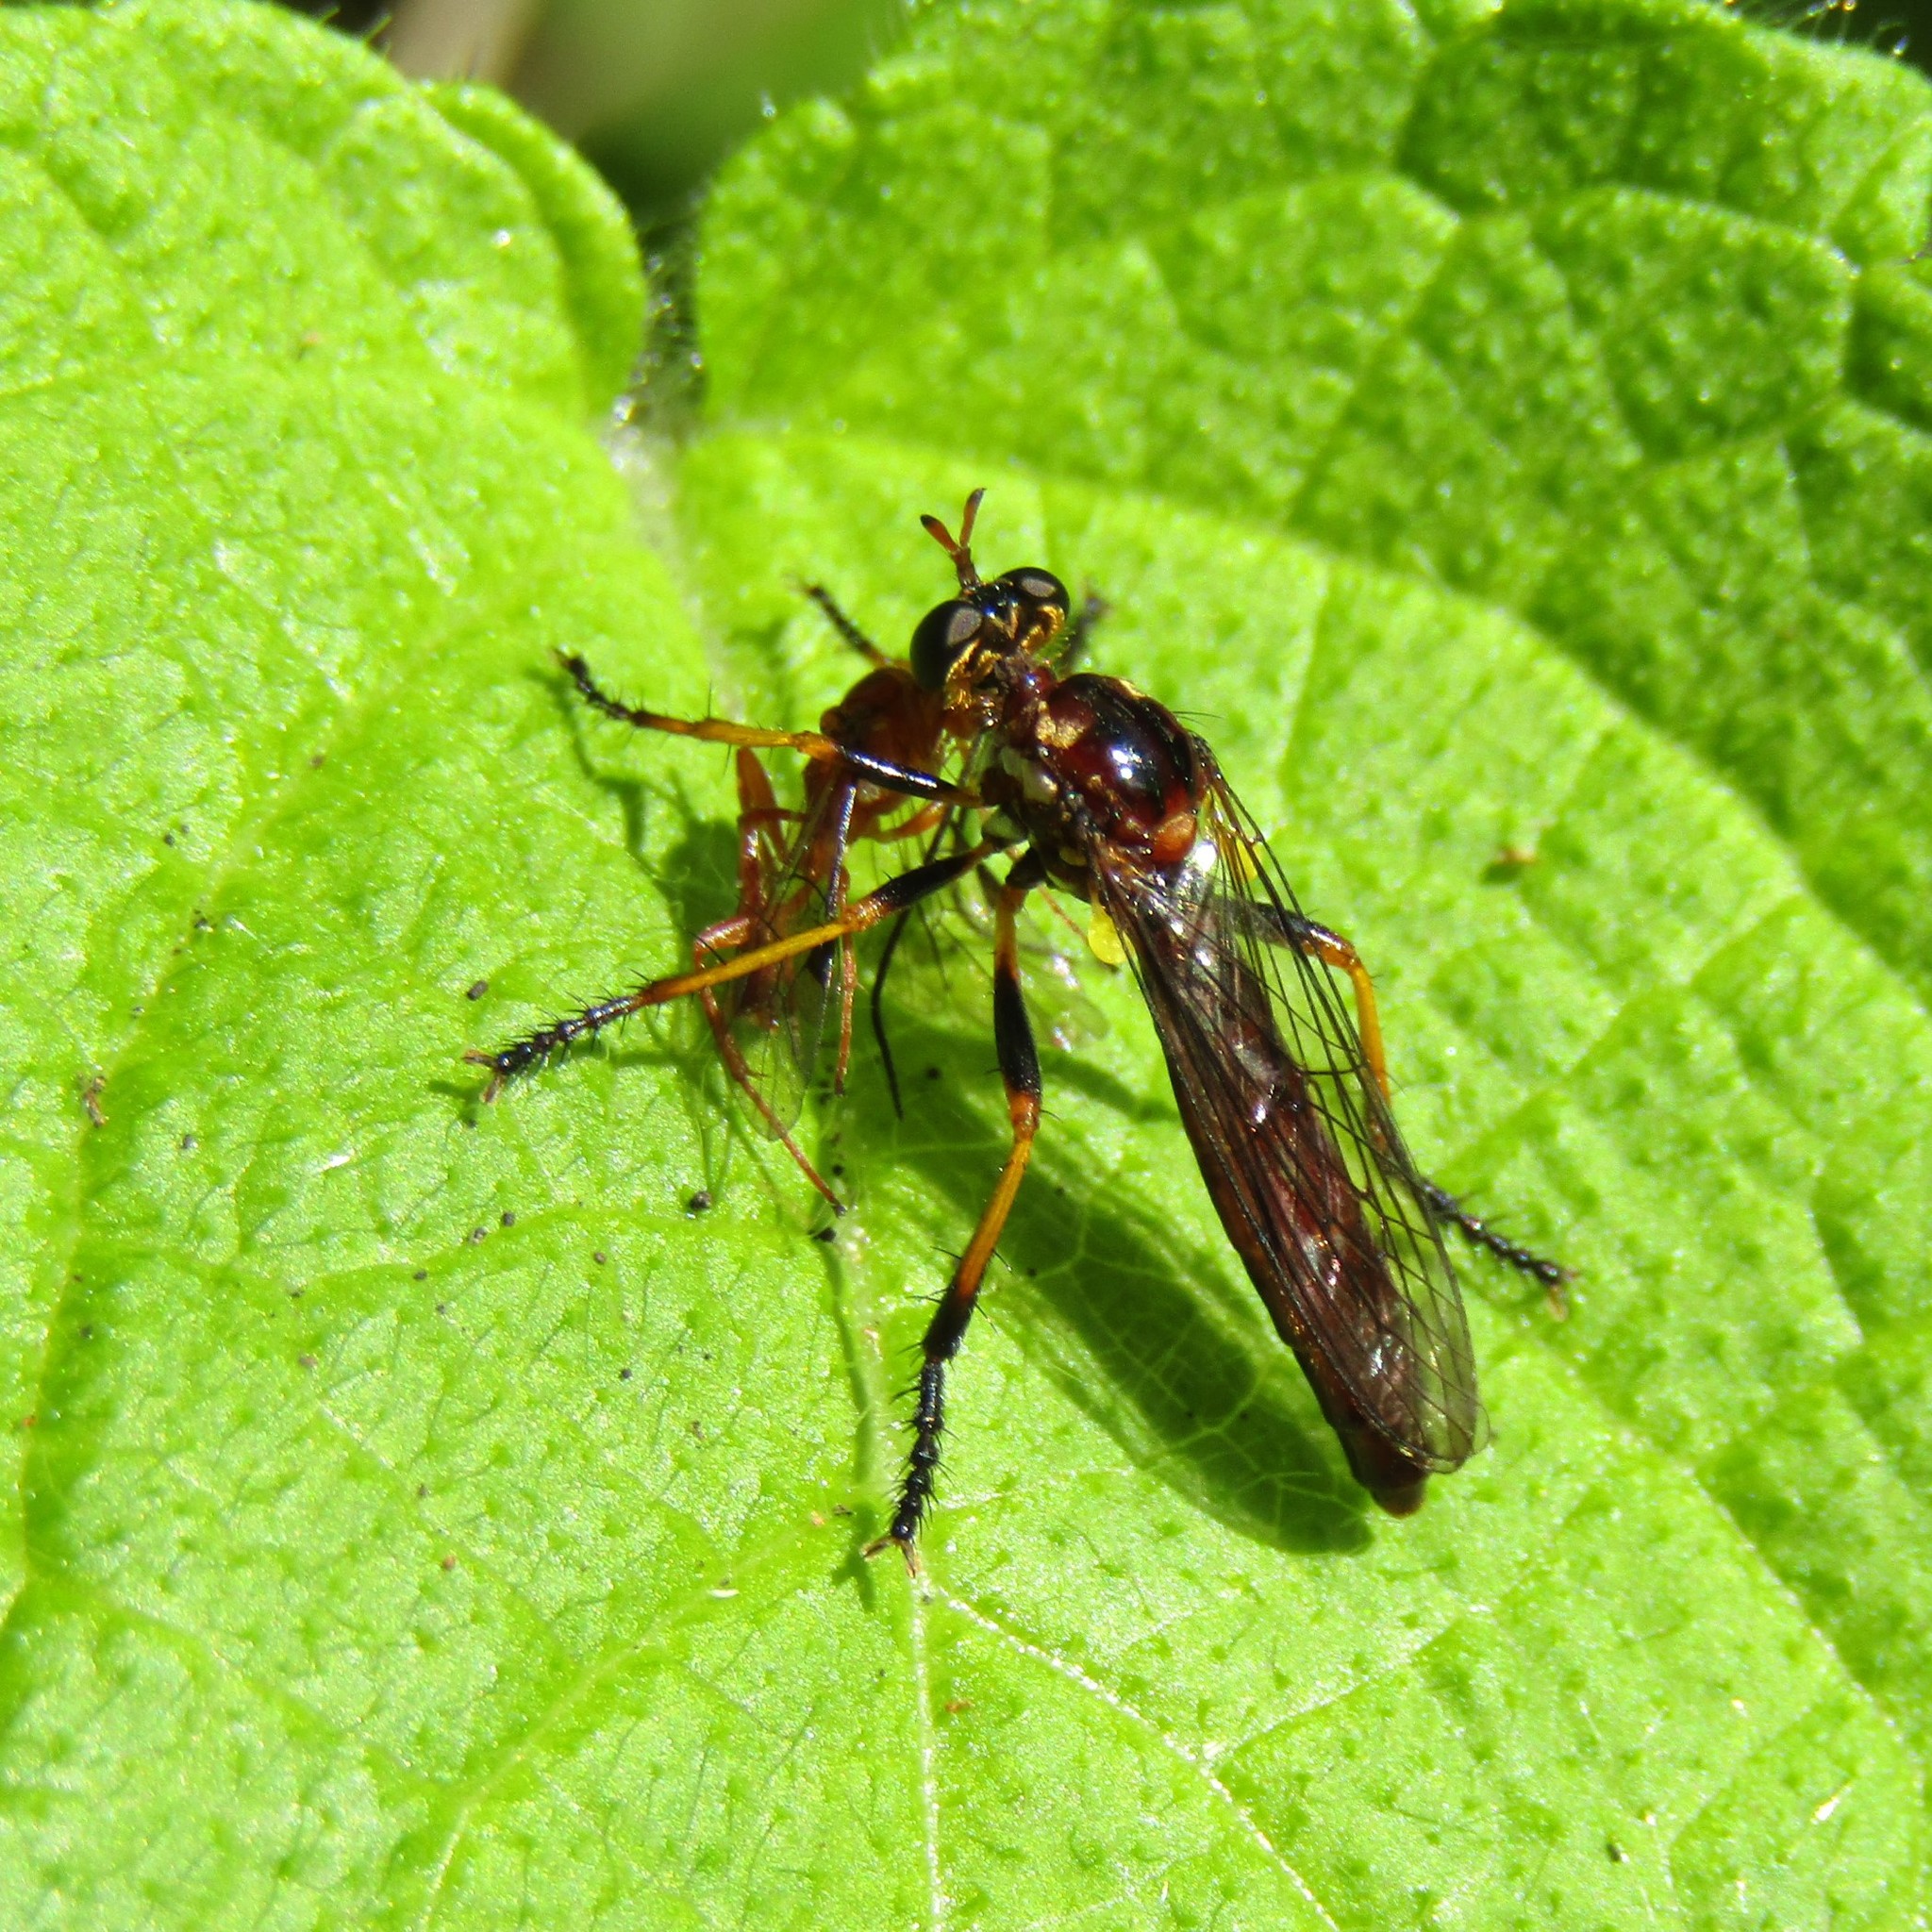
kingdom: Animalia
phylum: Arthropoda
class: Insecta
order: Diptera
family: Asilidae
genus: Saropogon
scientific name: Saropogon fascipes
